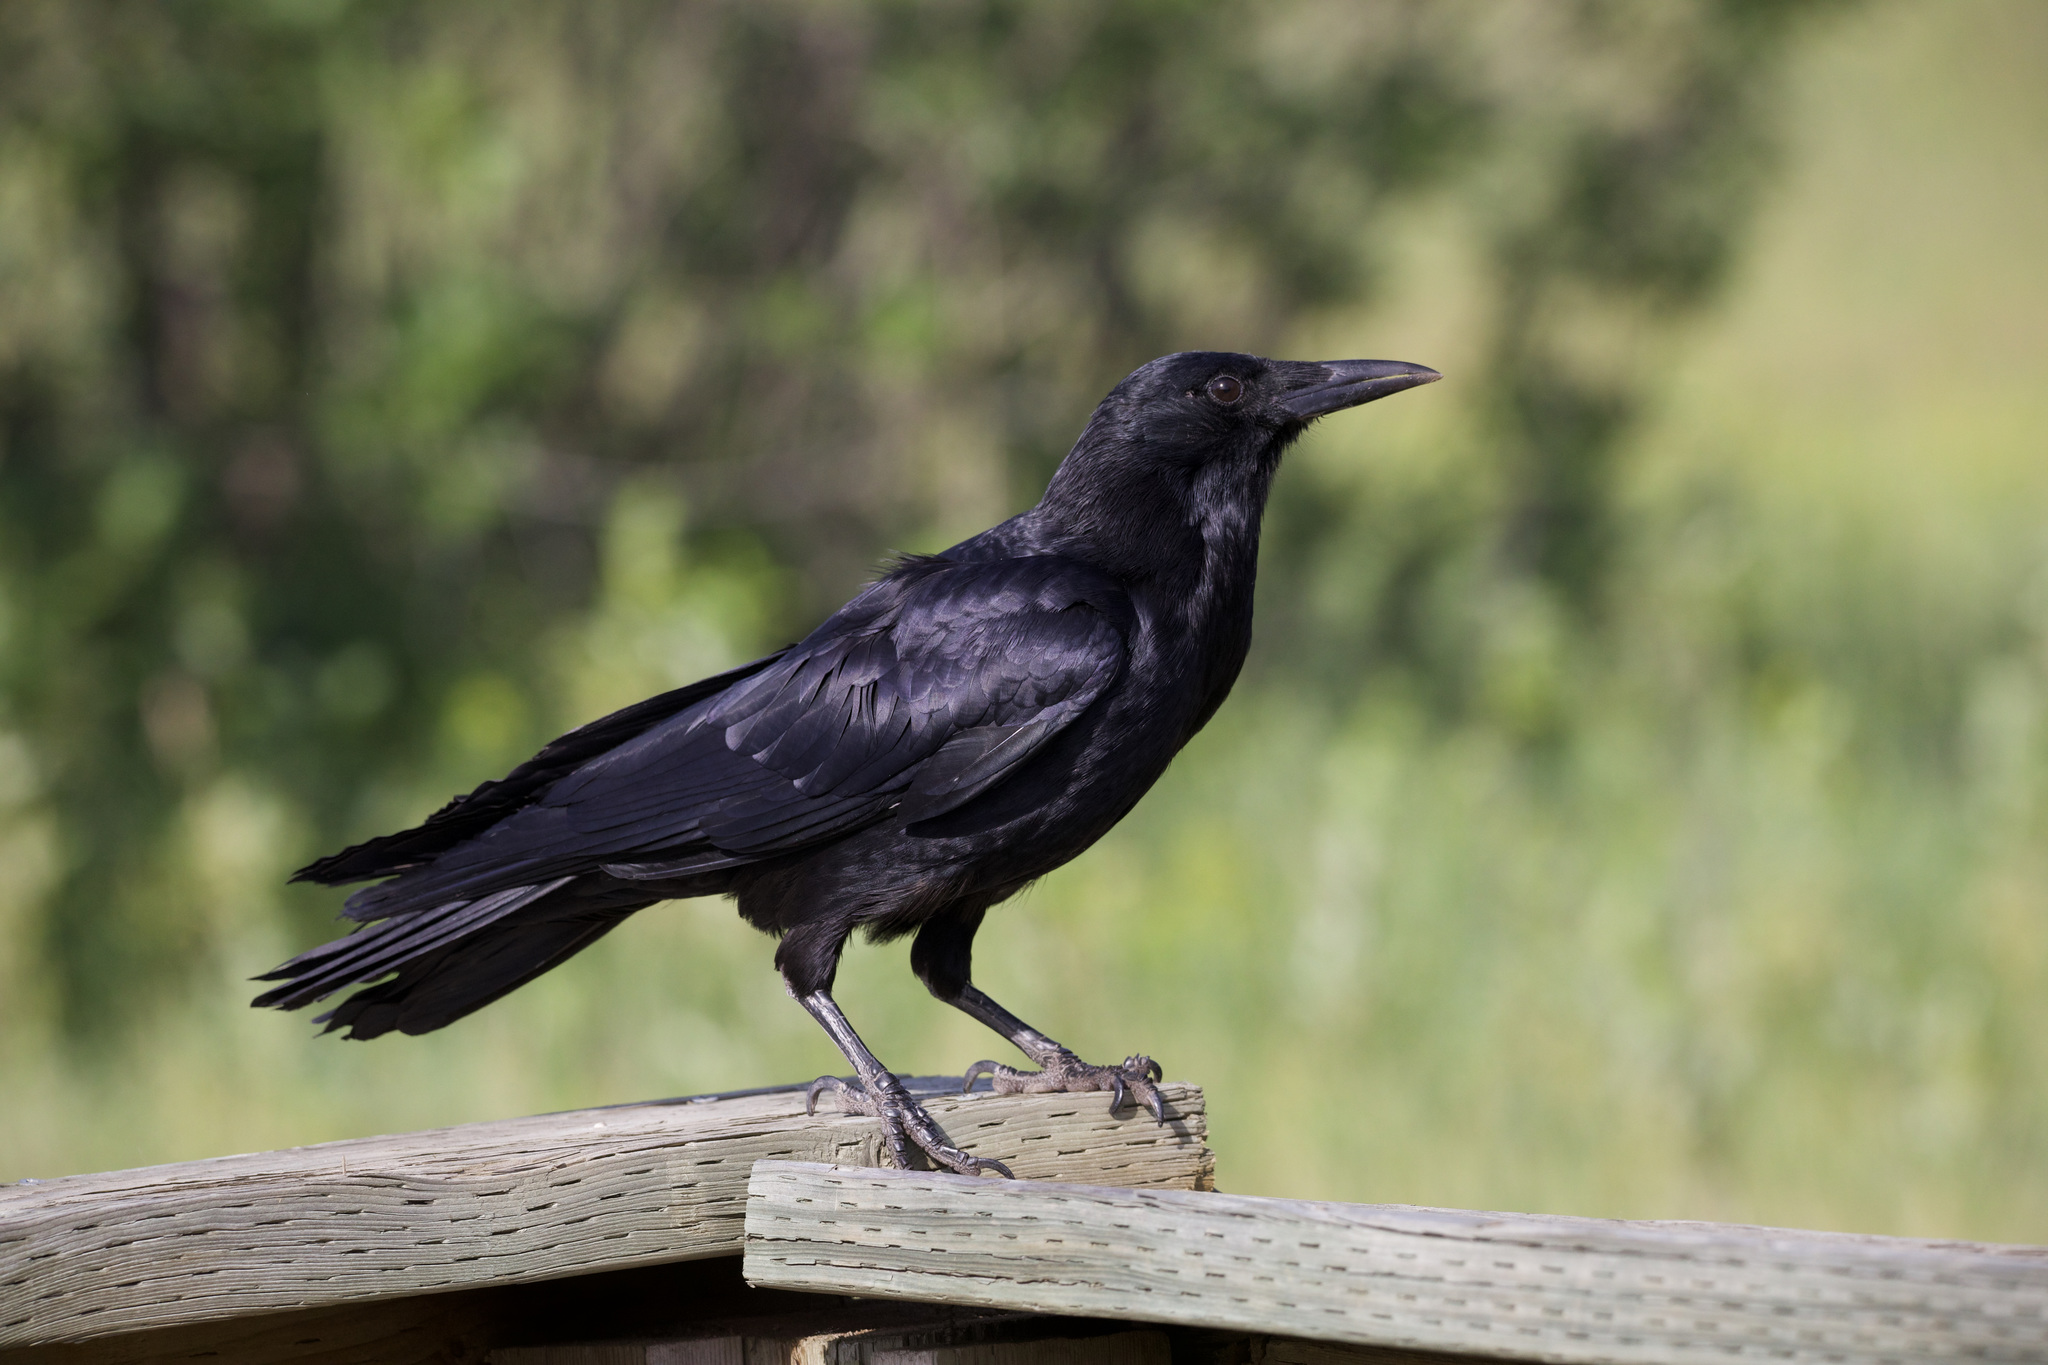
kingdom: Animalia
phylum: Chordata
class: Aves
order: Passeriformes
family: Corvidae
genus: Corvus
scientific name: Corvus brachyrhynchos
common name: American crow
